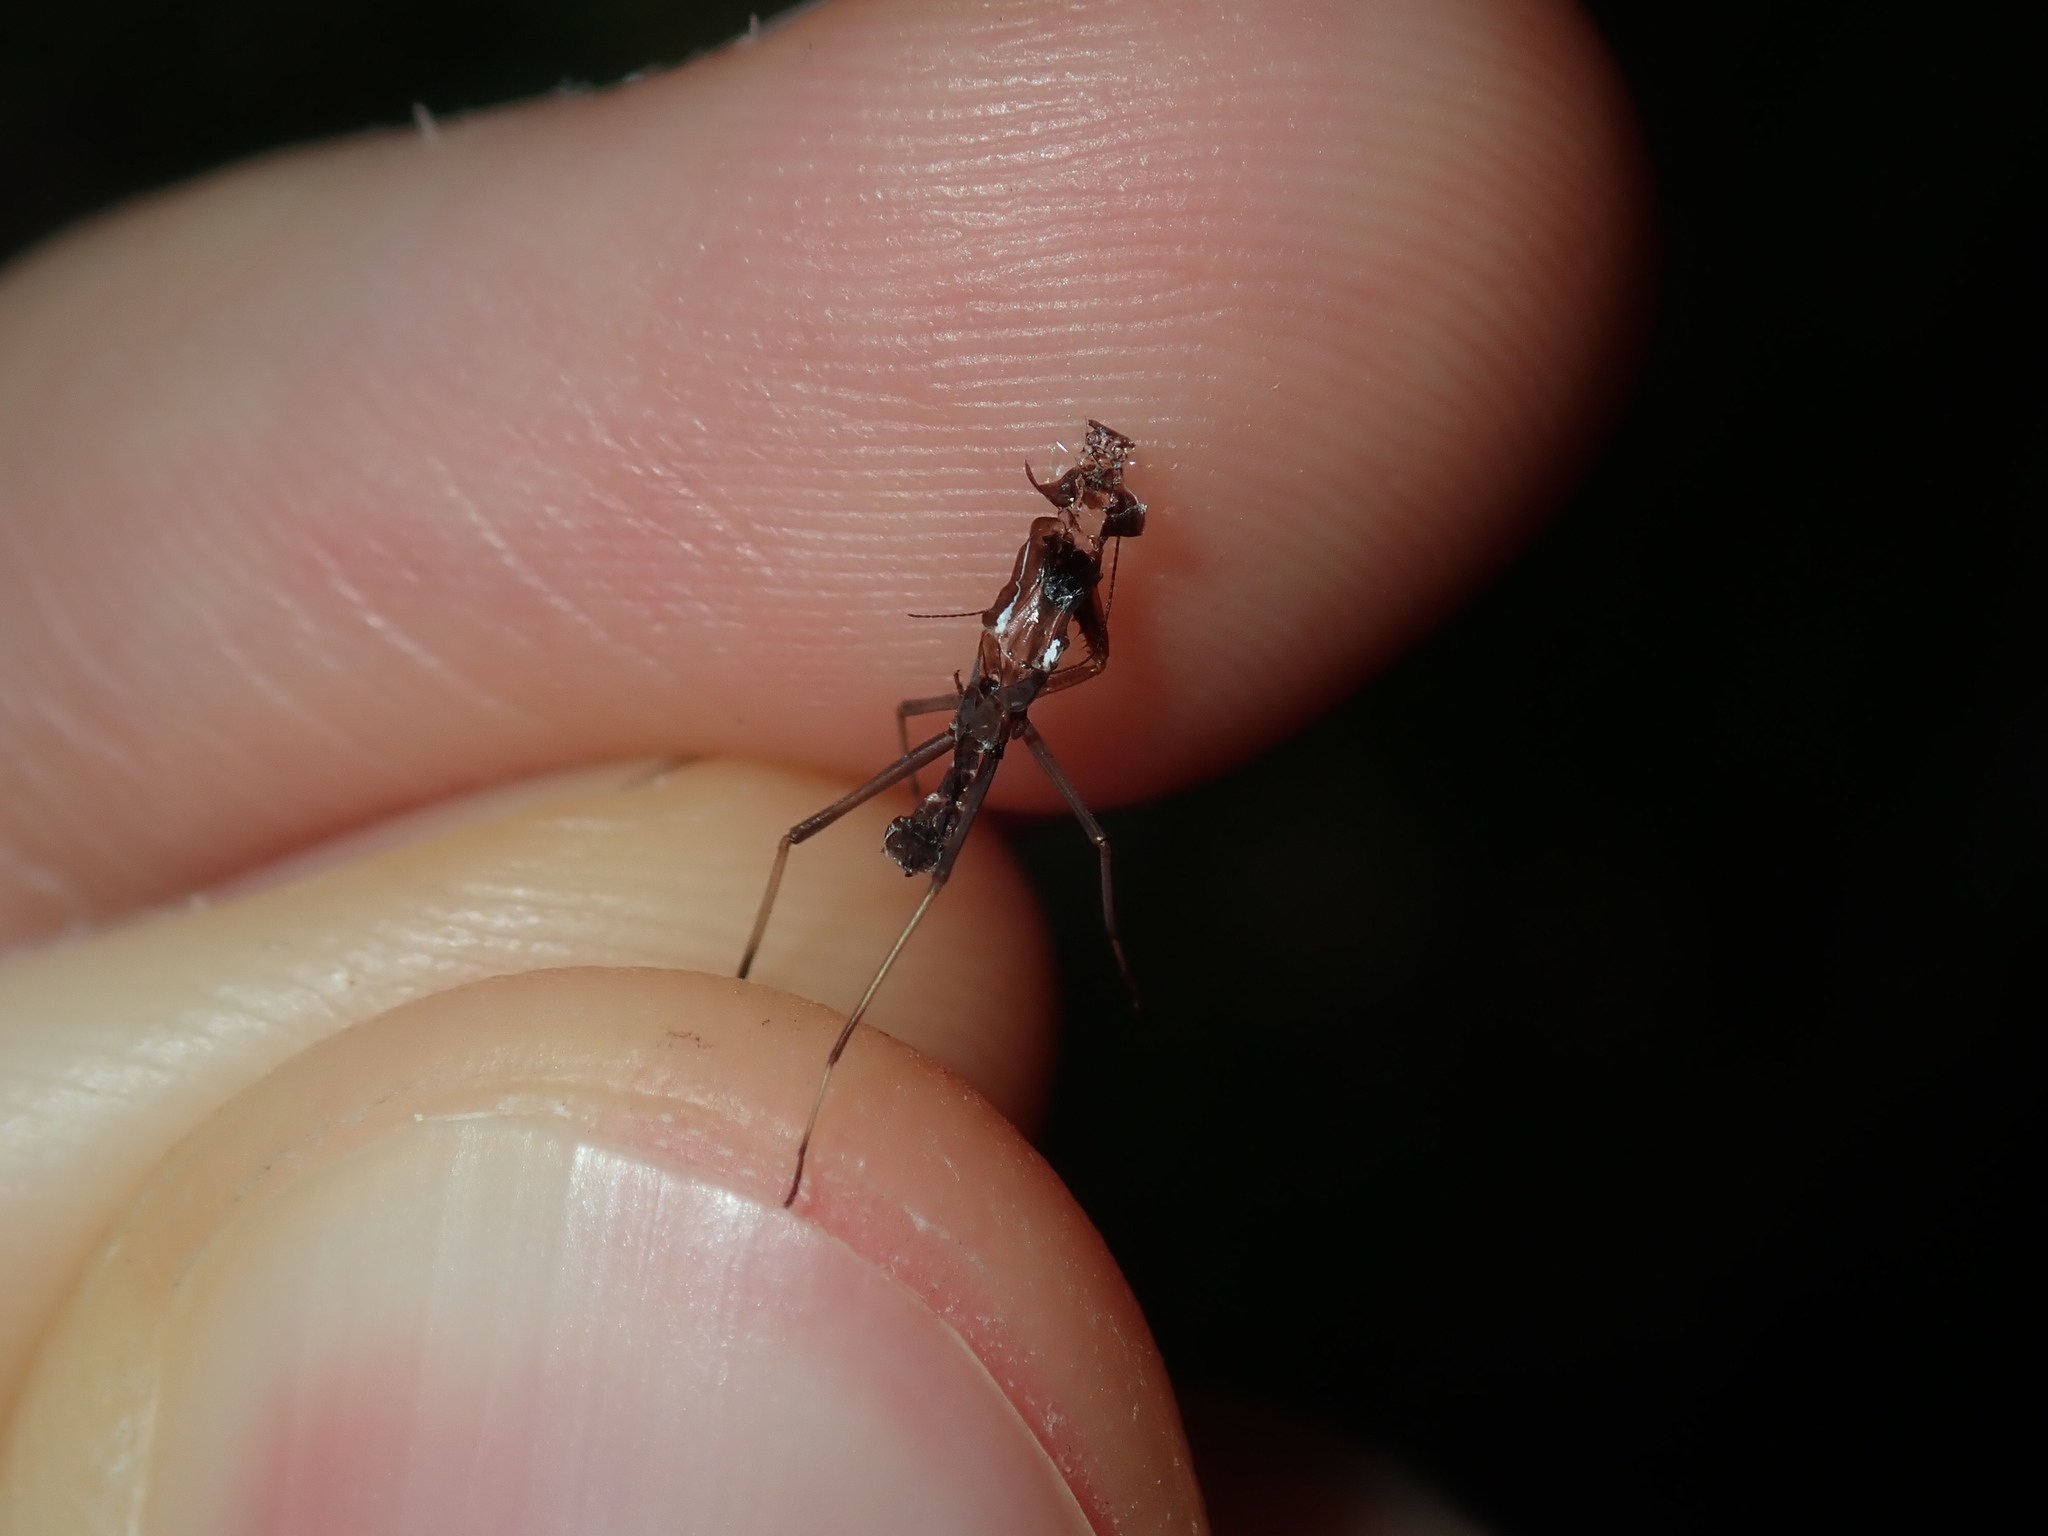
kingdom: Animalia
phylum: Arthropoda
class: Insecta
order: Mantodea
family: Mantidae
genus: Pseudomantis
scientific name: Pseudomantis albofimbriata
